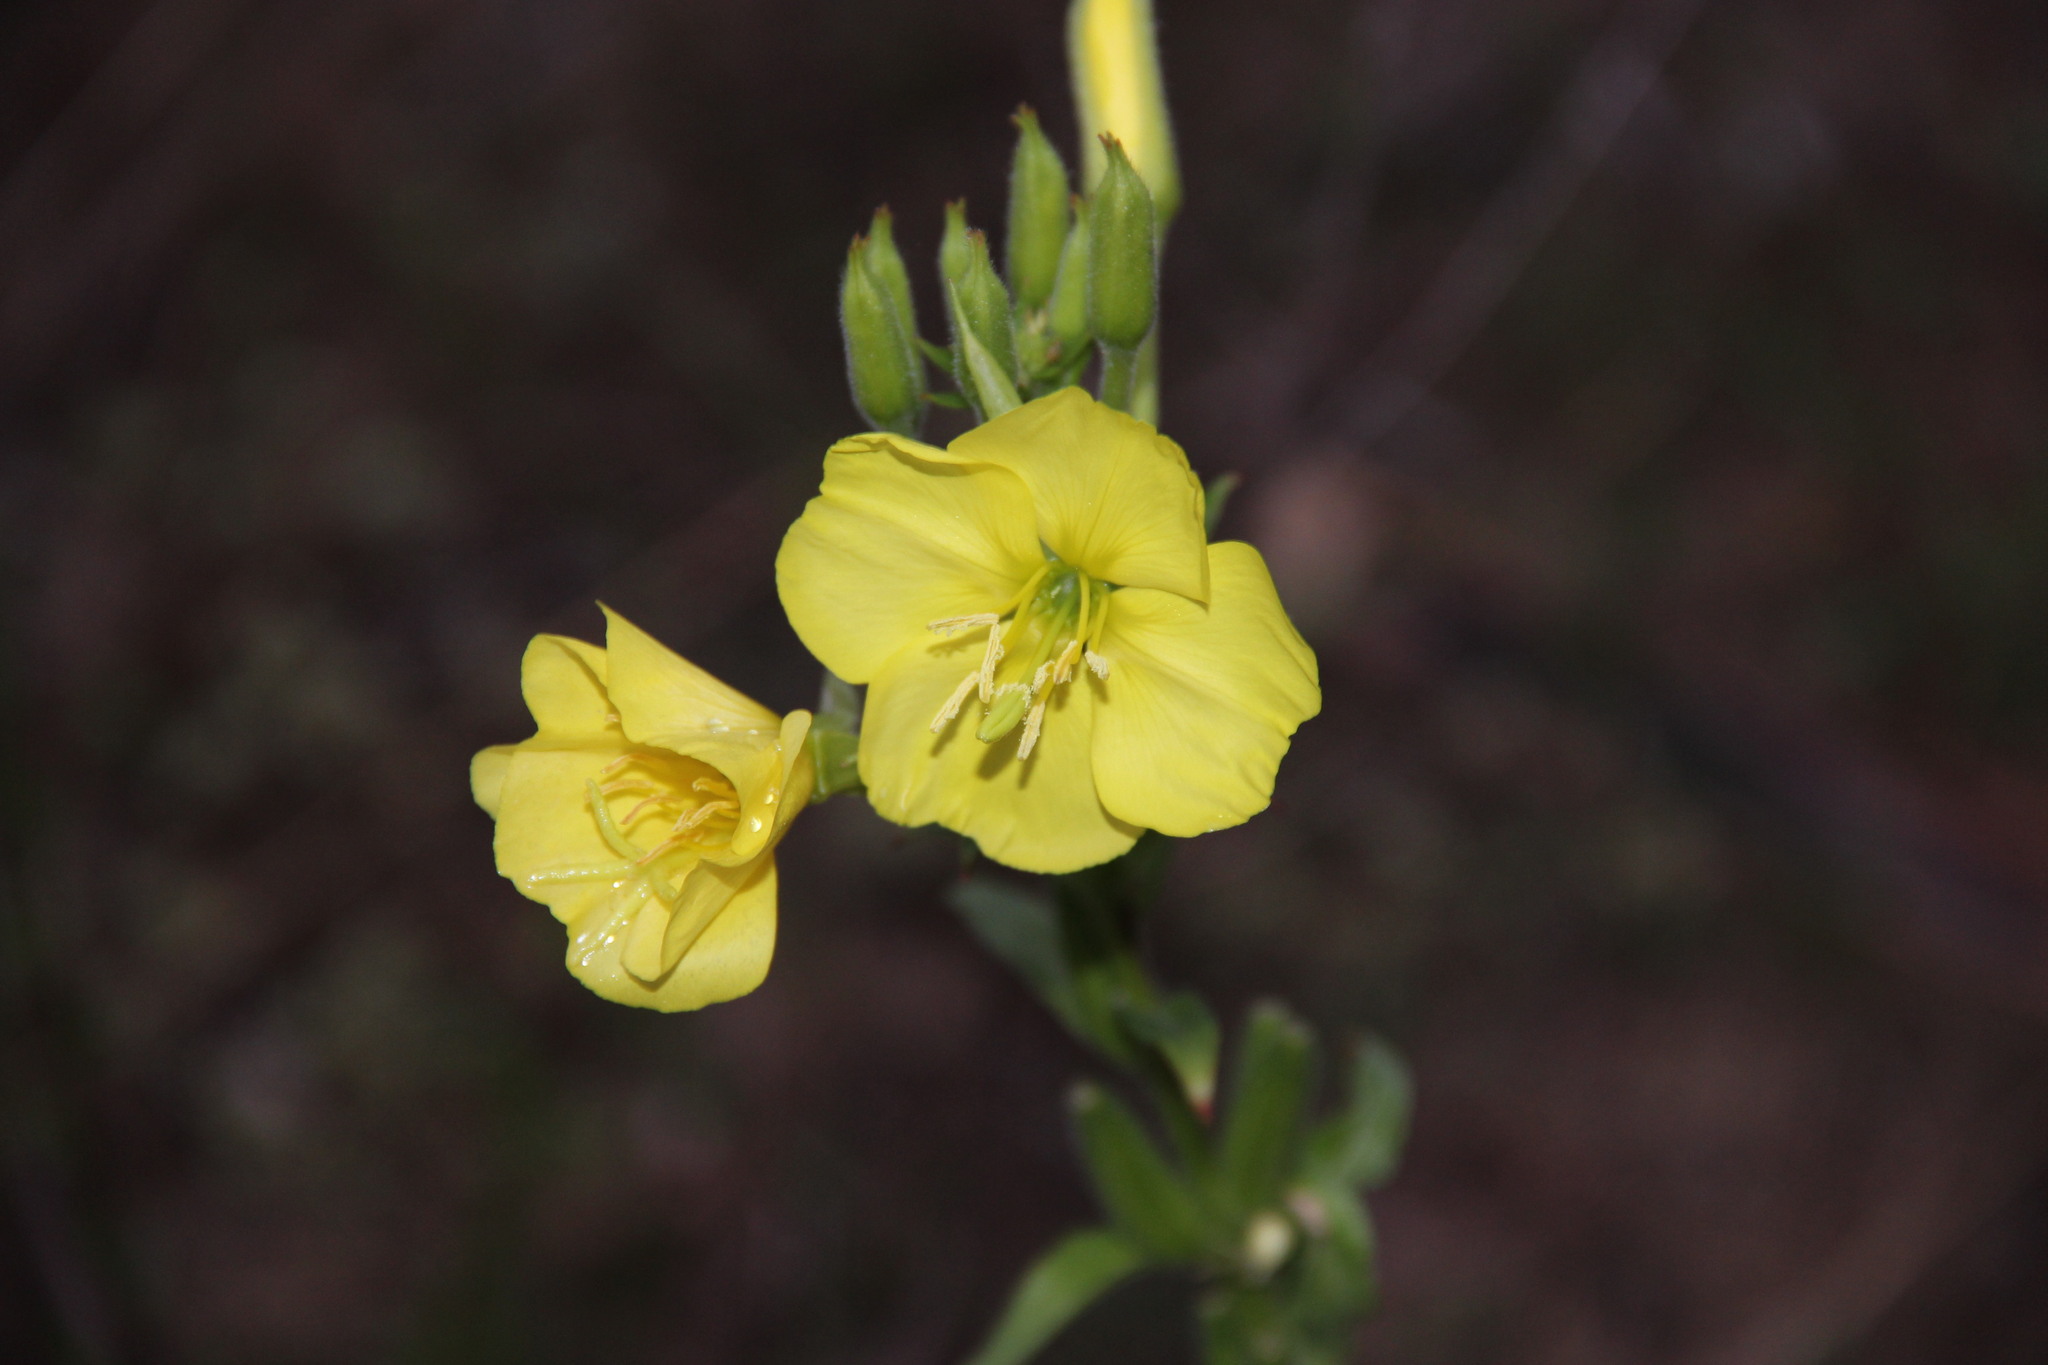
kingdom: Plantae
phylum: Tracheophyta
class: Magnoliopsida
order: Myrtales
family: Onagraceae
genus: Oenothera
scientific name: Oenothera rubricaulis
